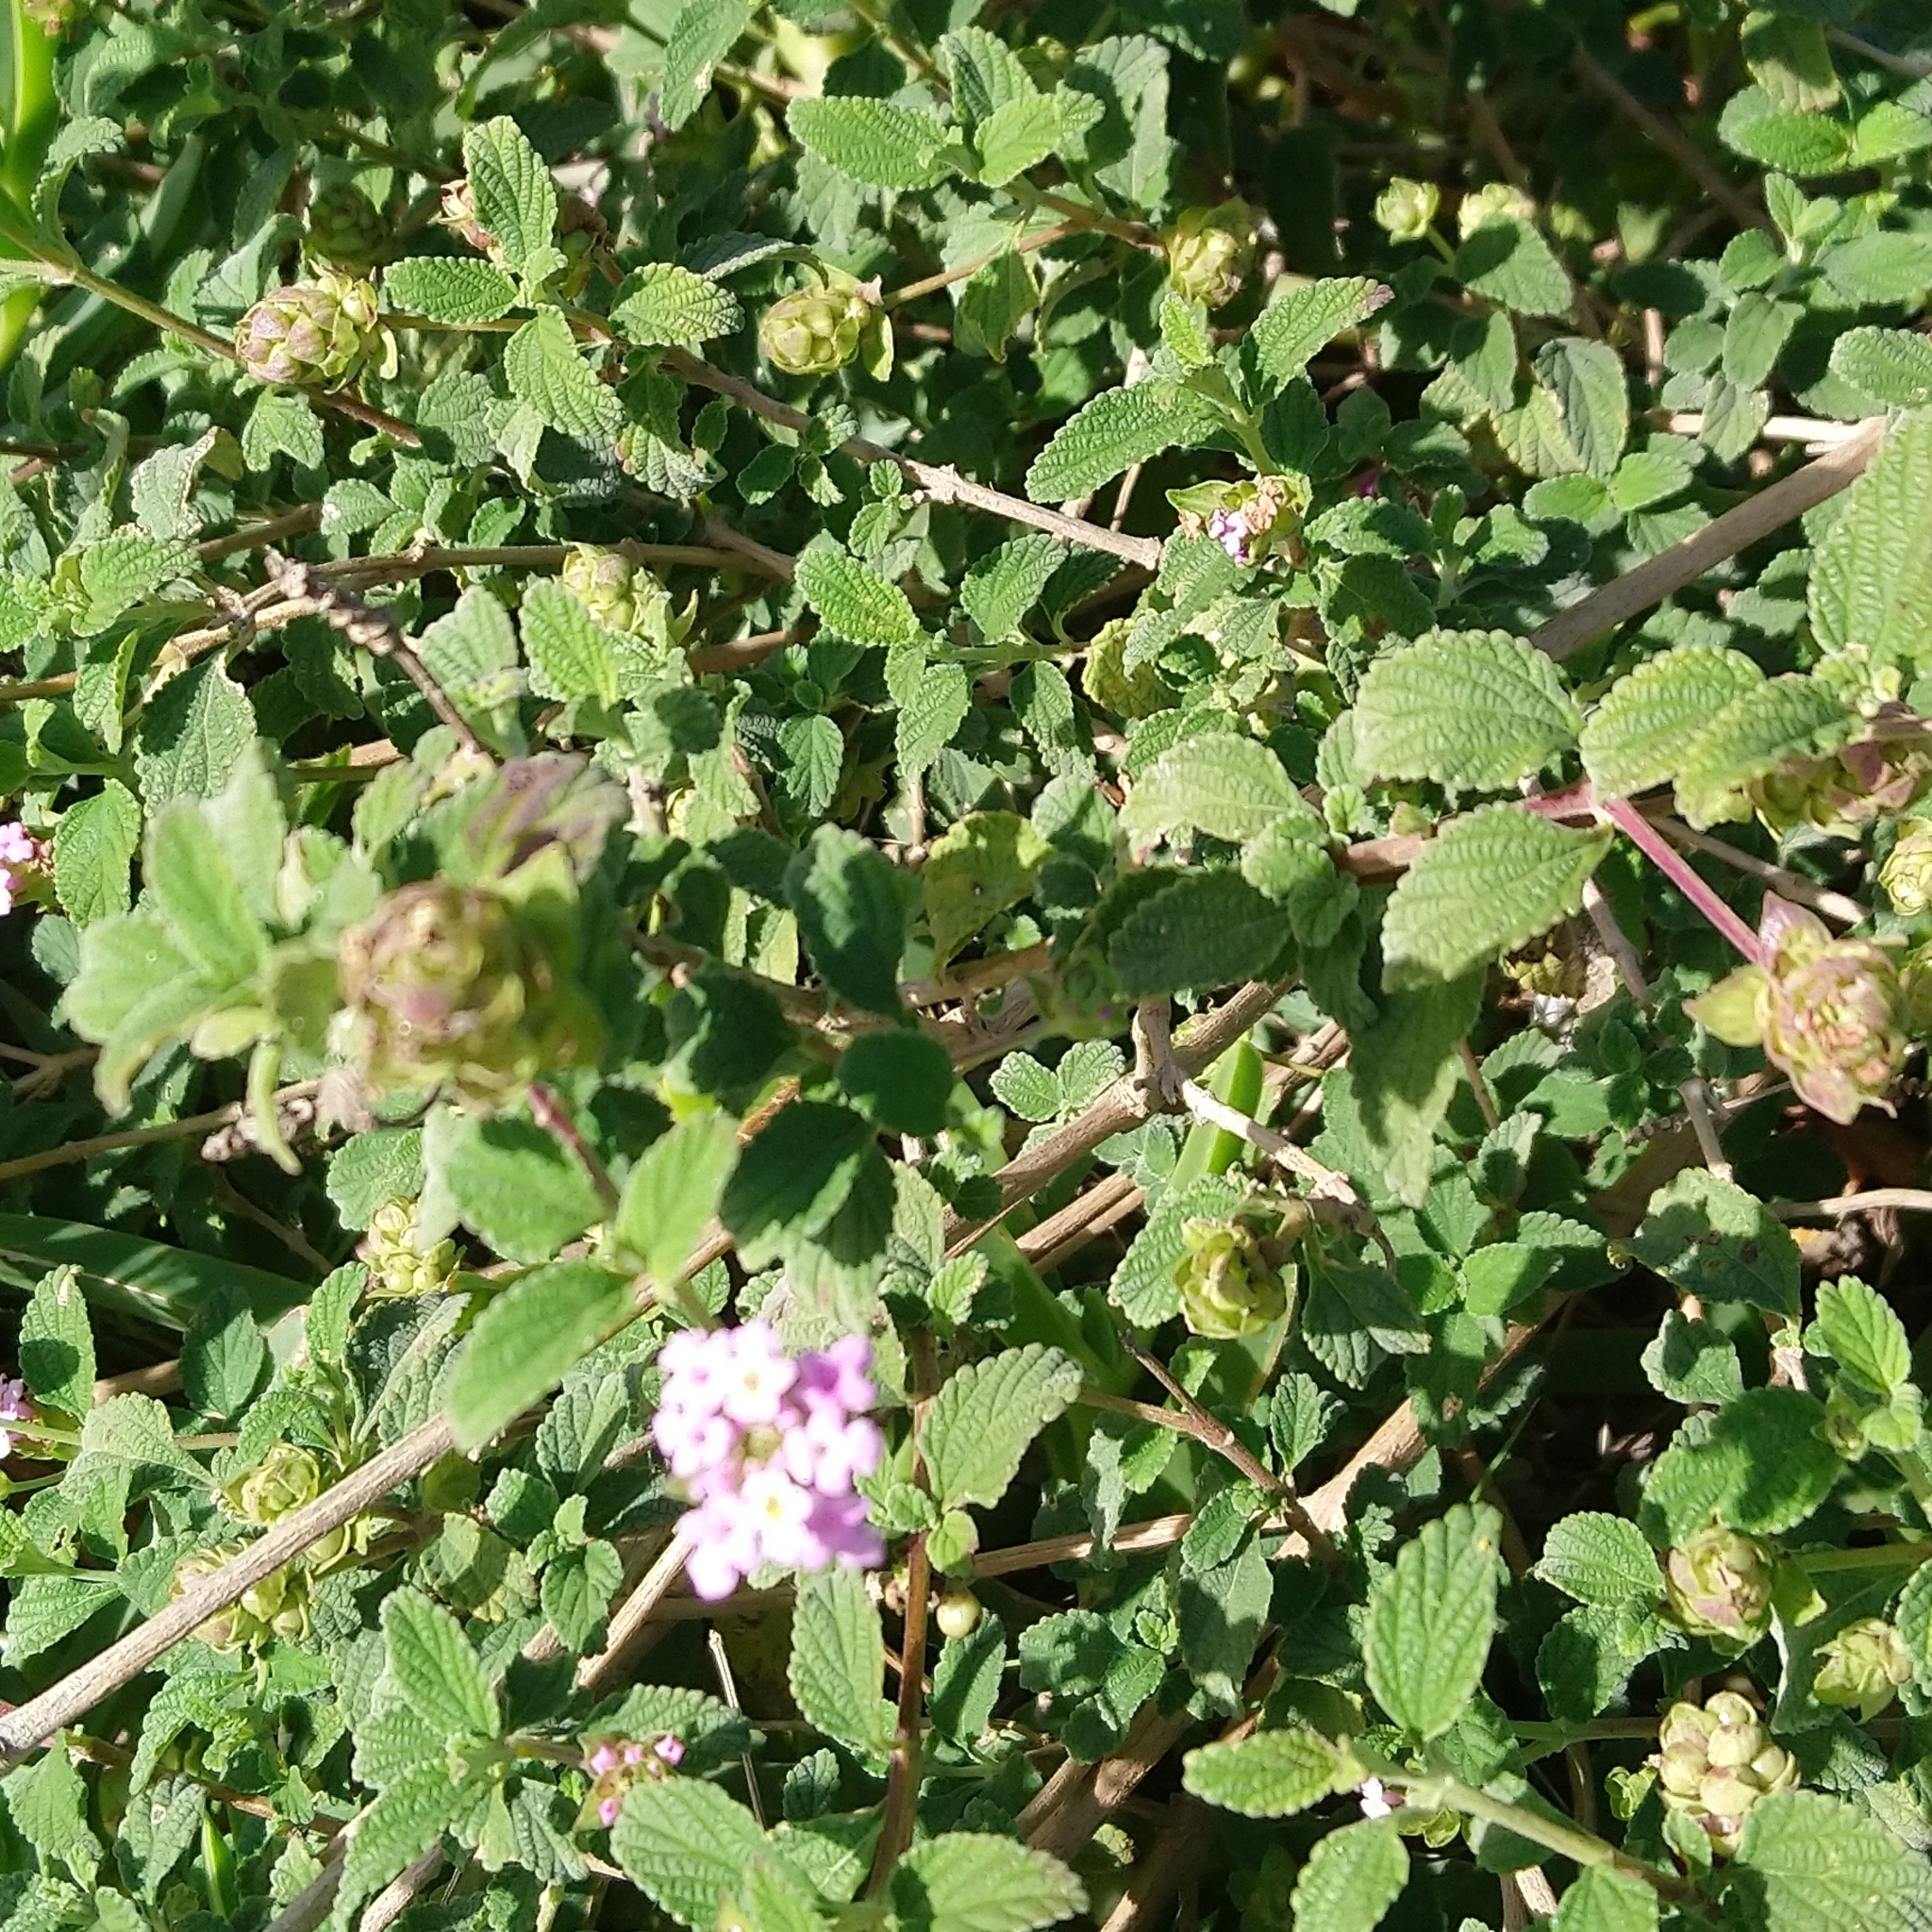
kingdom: Plantae
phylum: Tracheophyta
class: Magnoliopsida
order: Lamiales
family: Verbenaceae
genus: Lantana
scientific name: Lantana rugosa
